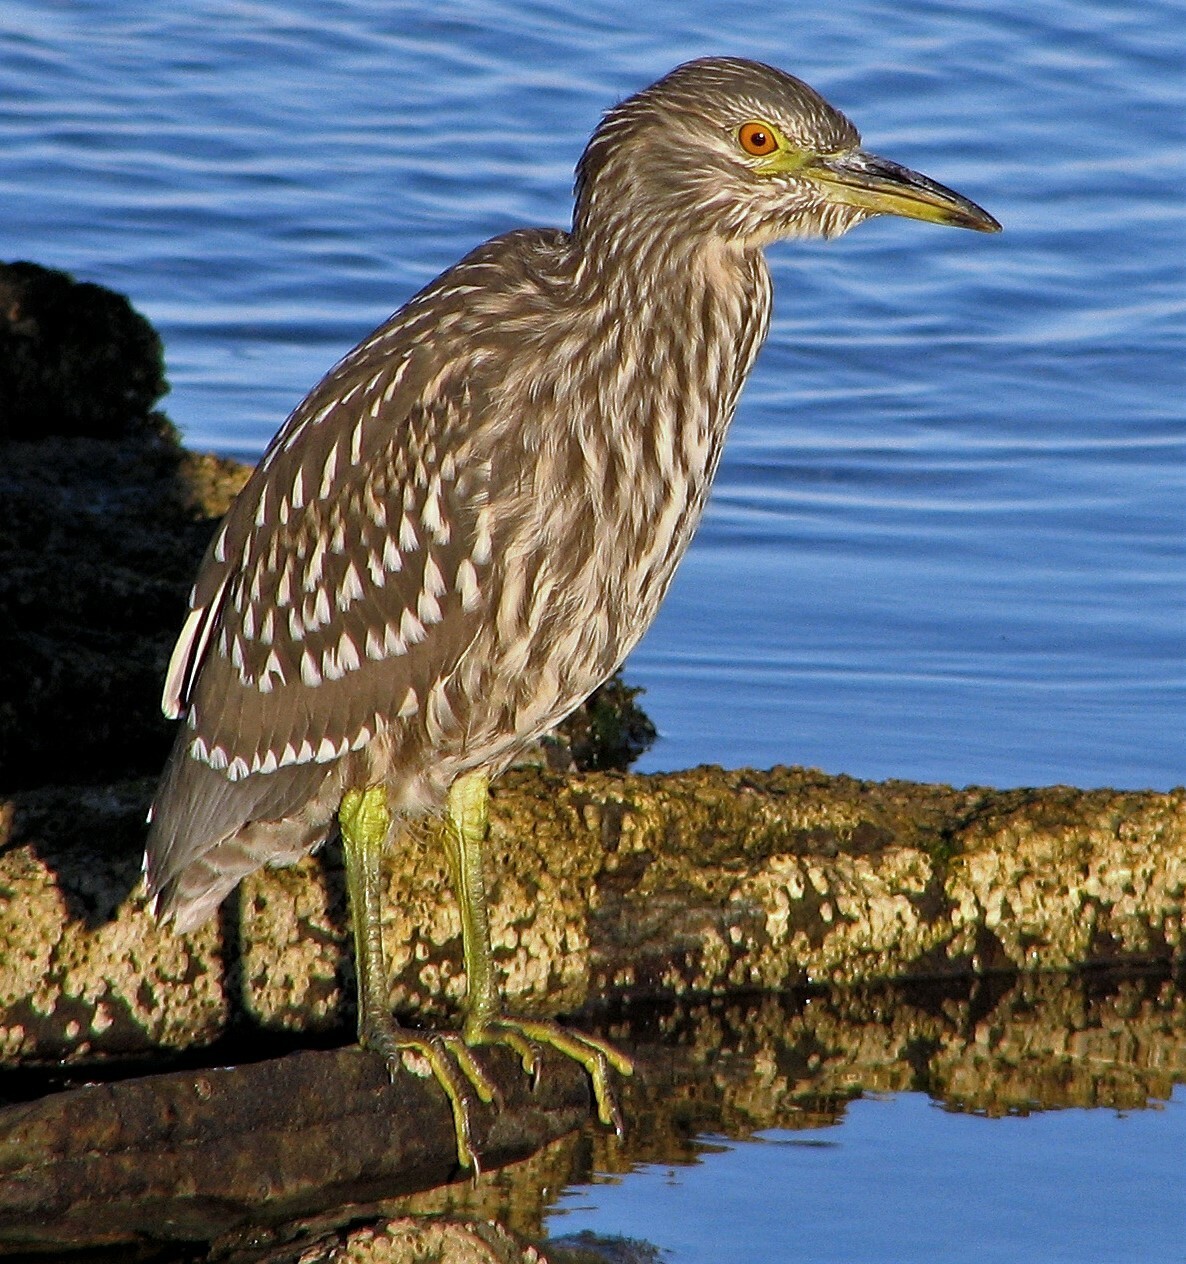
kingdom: Animalia
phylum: Chordata
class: Aves
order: Pelecaniformes
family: Ardeidae
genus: Nycticorax
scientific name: Nycticorax nycticorax
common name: Black-crowned night heron
